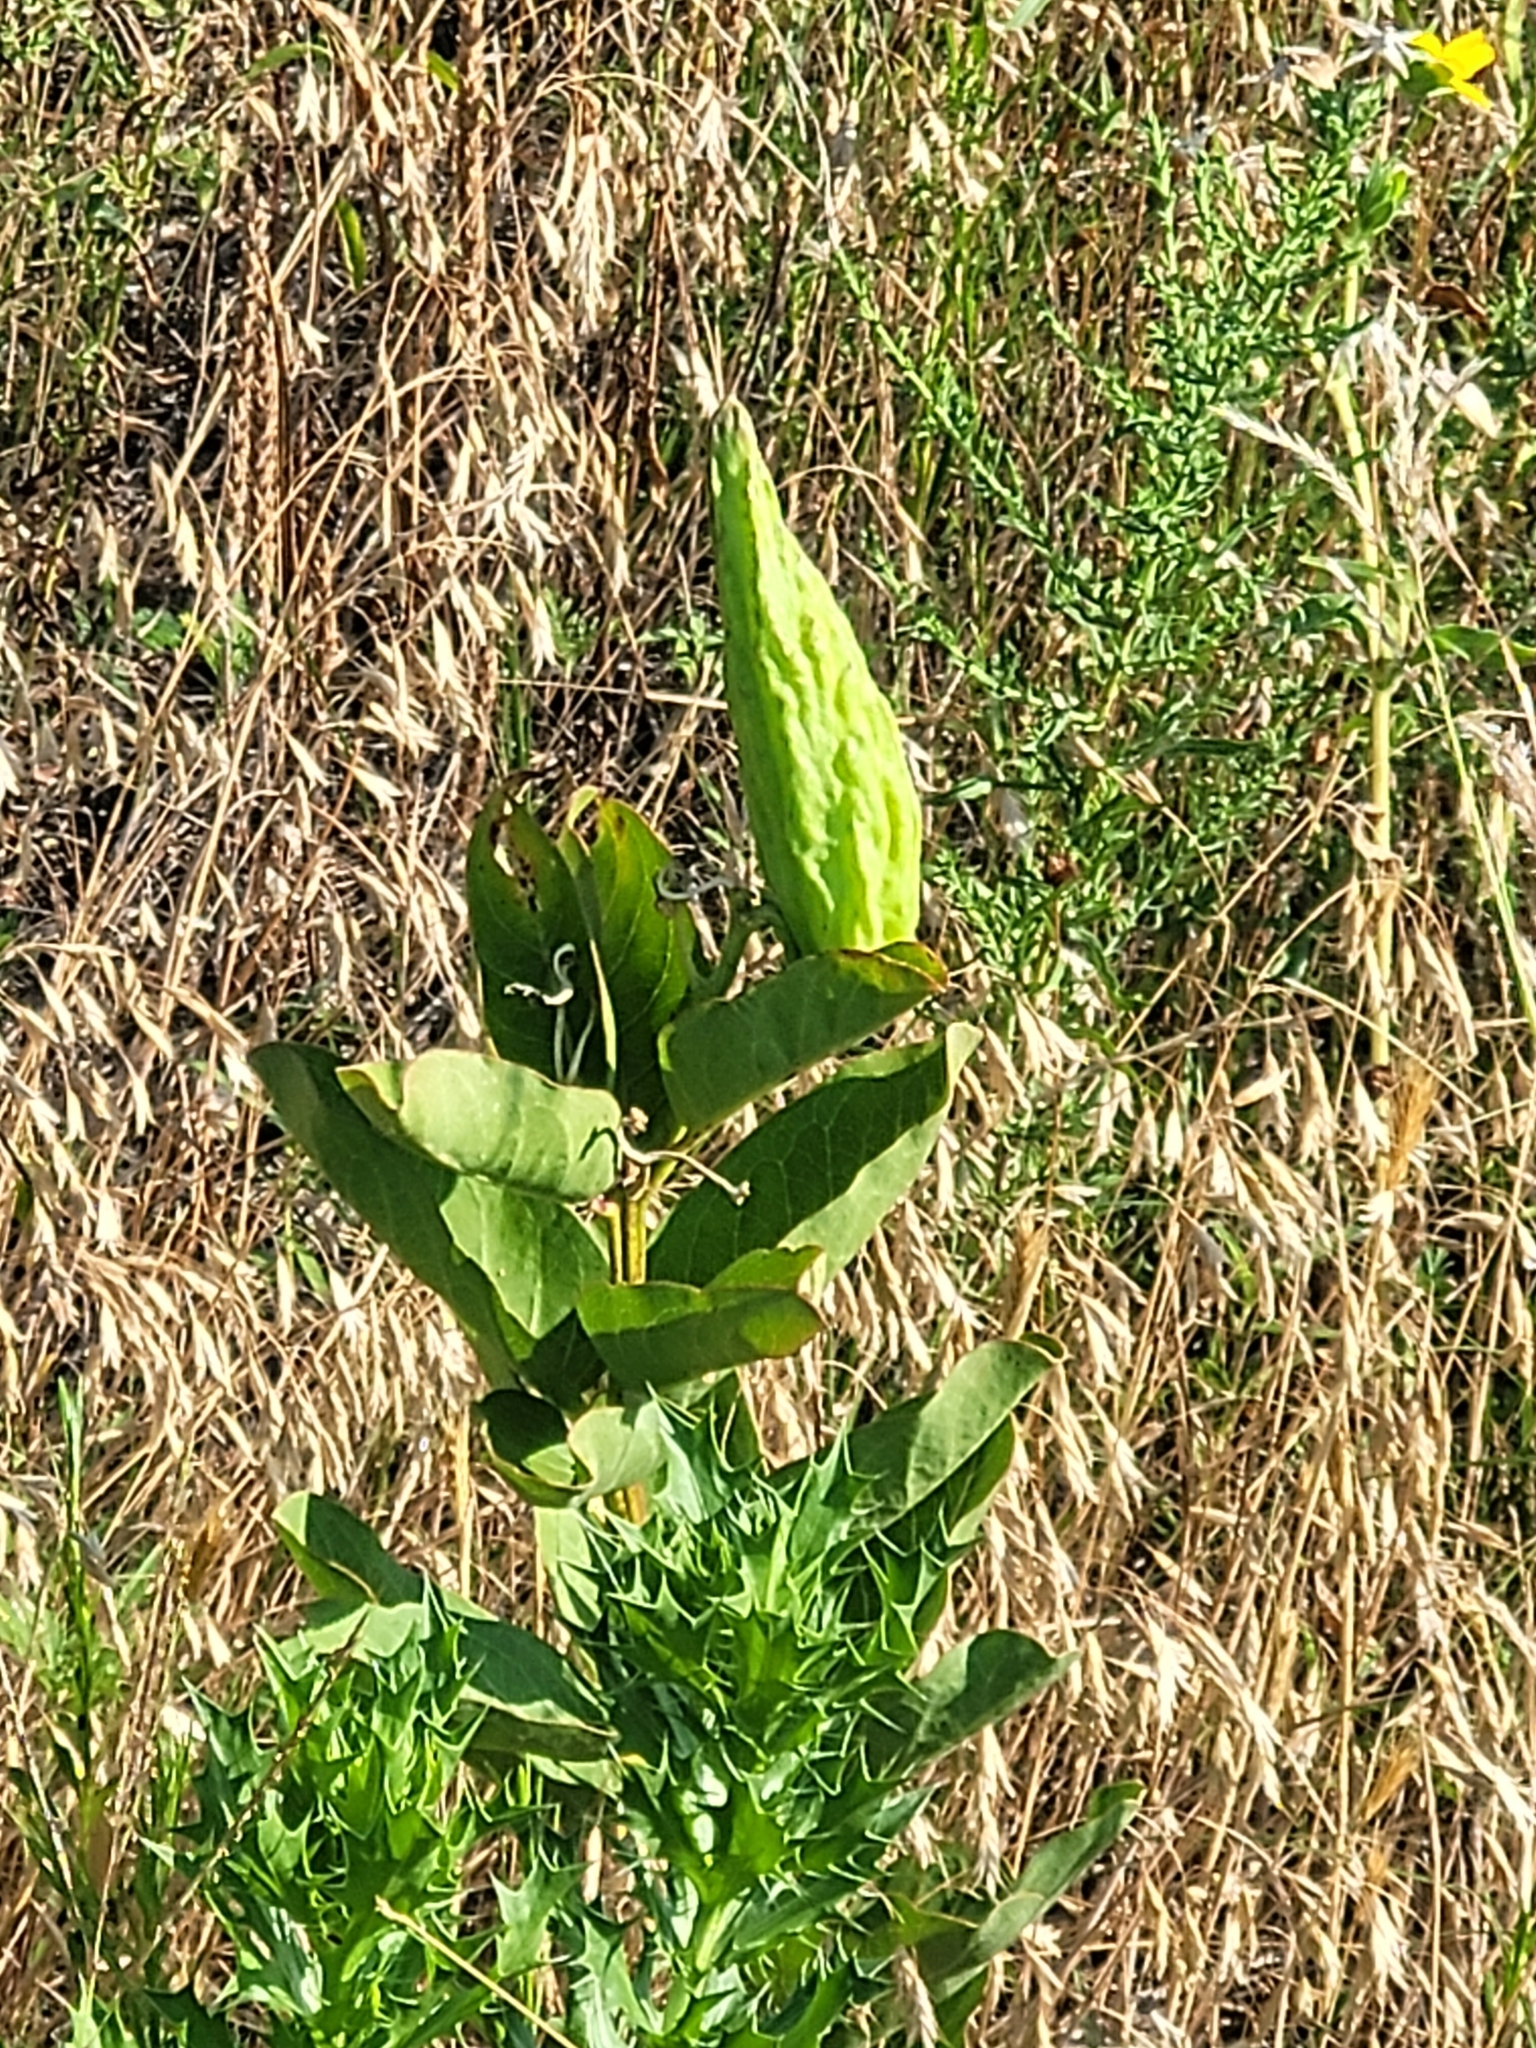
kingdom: Plantae
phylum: Tracheophyta
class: Magnoliopsida
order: Gentianales
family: Apocynaceae
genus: Asclepias
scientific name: Asclepias viridis
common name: Antelope-horns
